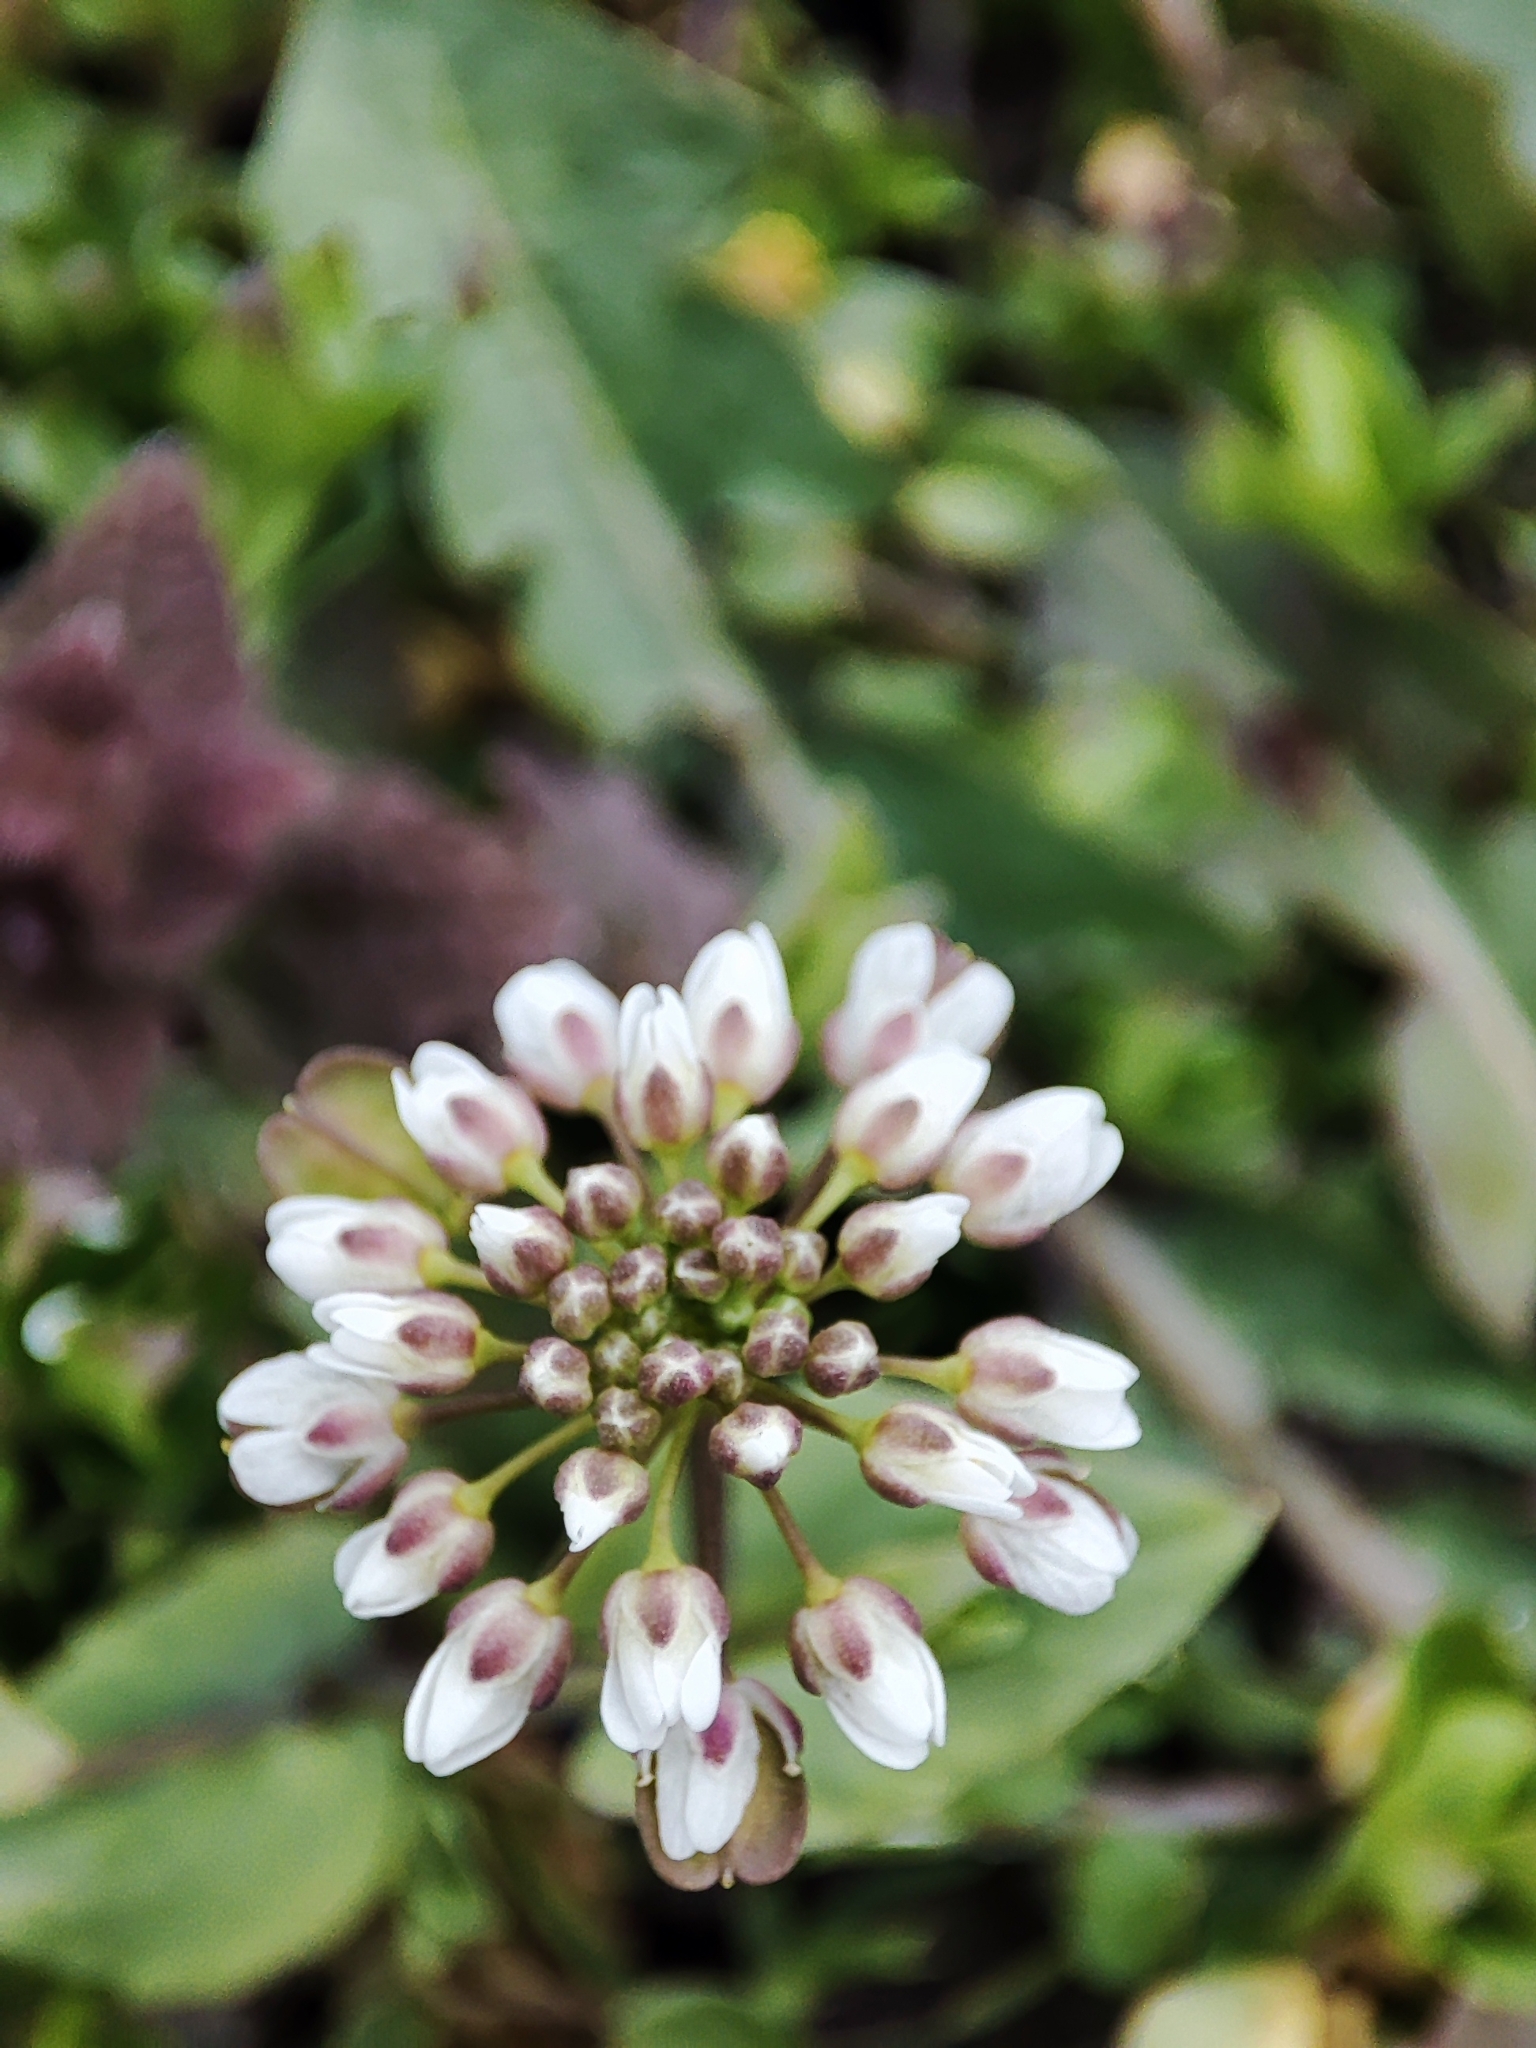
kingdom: Plantae
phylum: Tracheophyta
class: Magnoliopsida
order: Brassicales
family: Brassicaceae
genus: Noccaea
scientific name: Noccaea perfoliata
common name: Perfoliate pennycress
